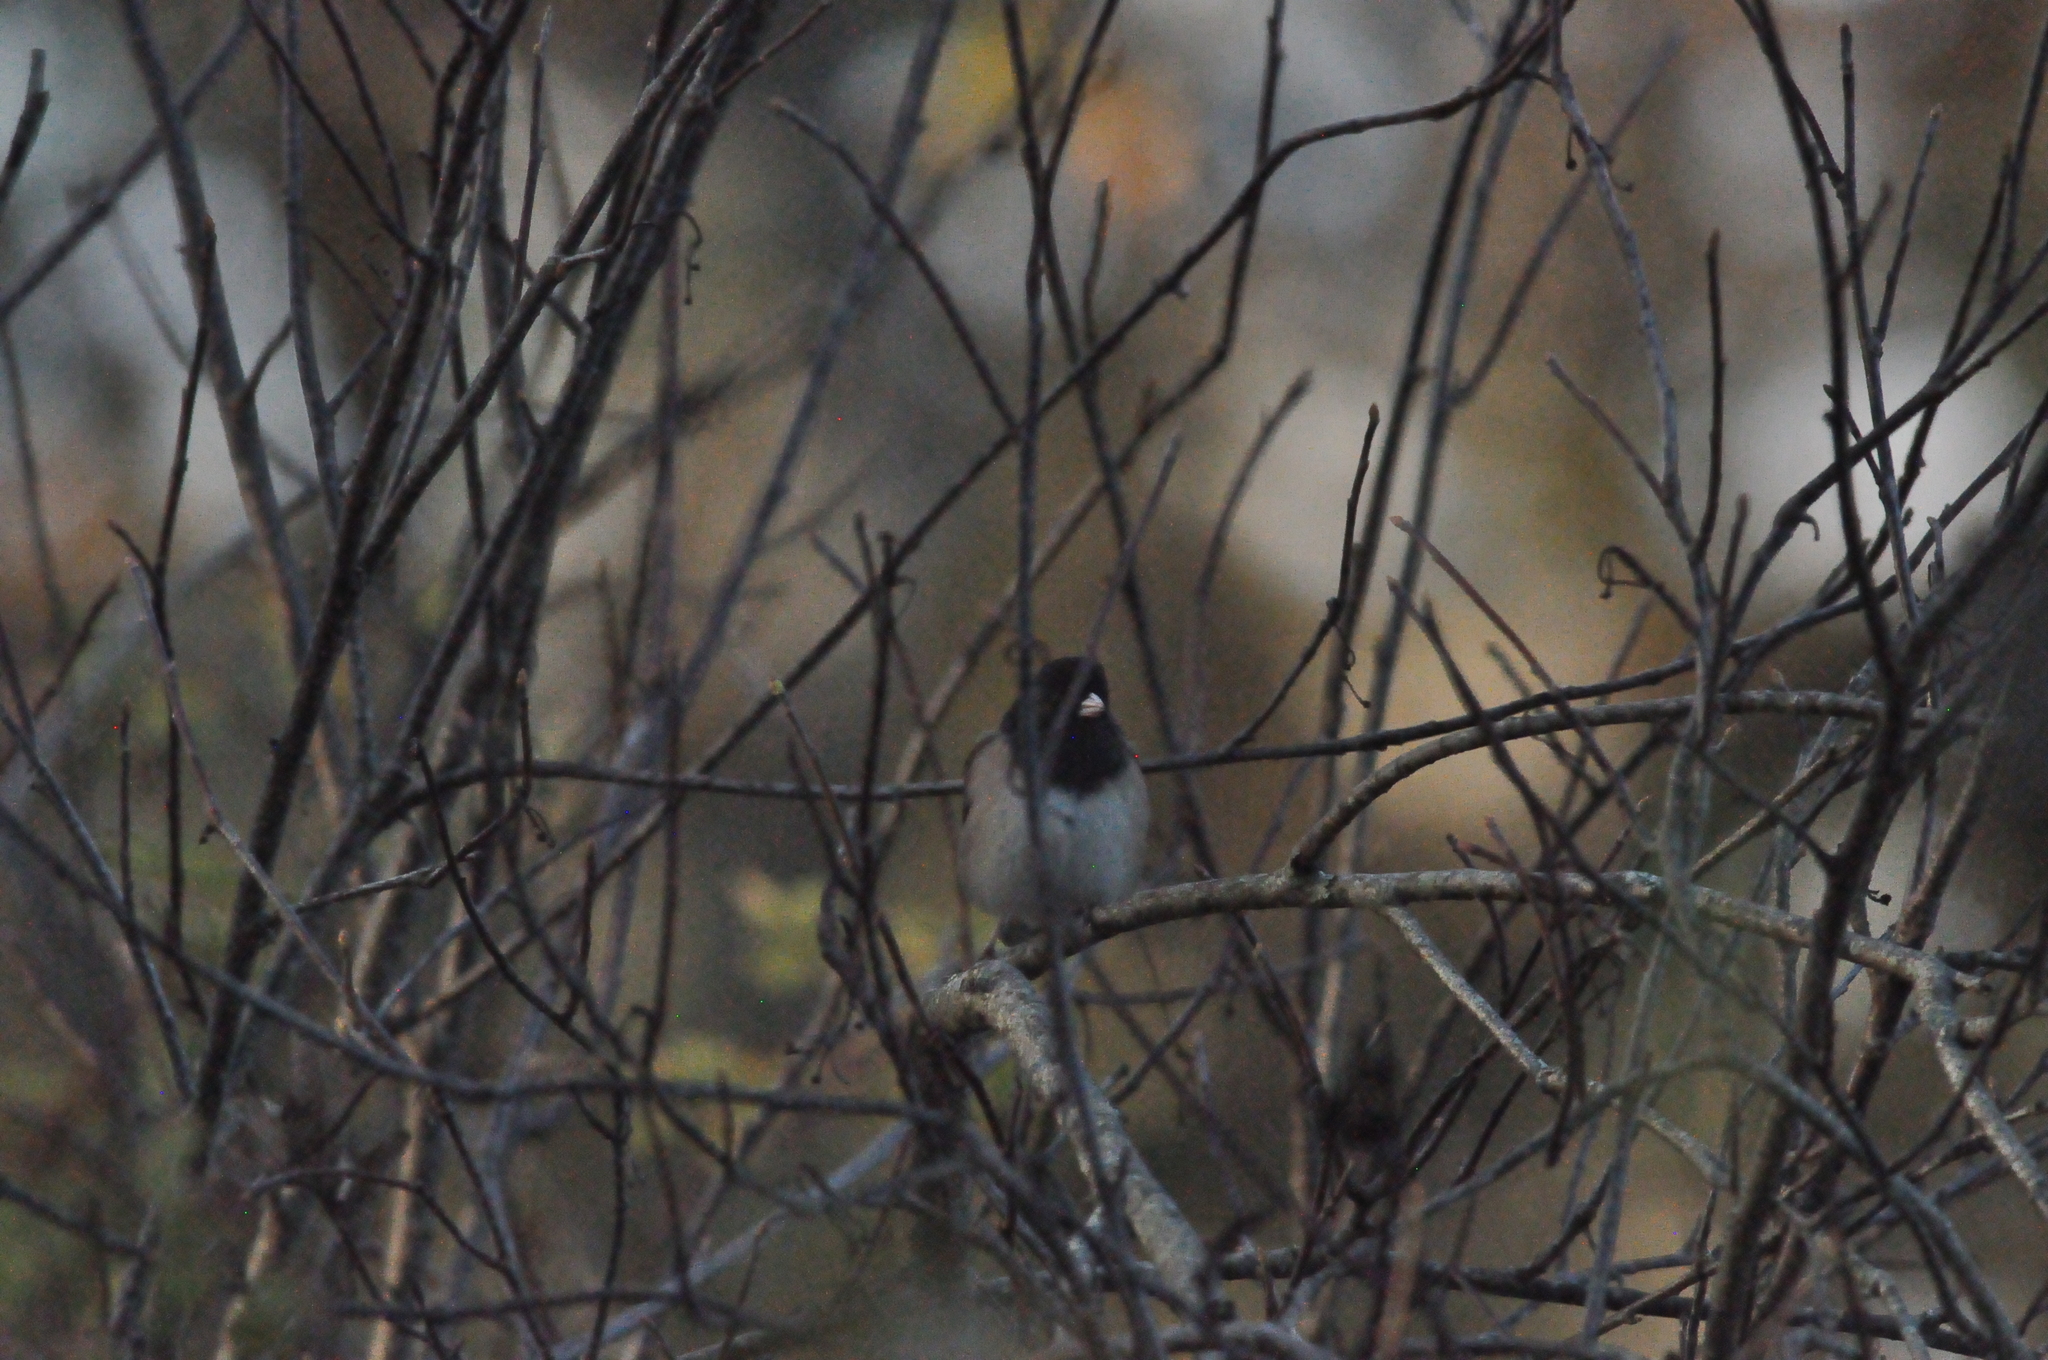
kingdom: Animalia
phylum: Chordata
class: Aves
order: Passeriformes
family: Passerellidae
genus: Junco
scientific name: Junco hyemalis
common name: Dark-eyed junco
